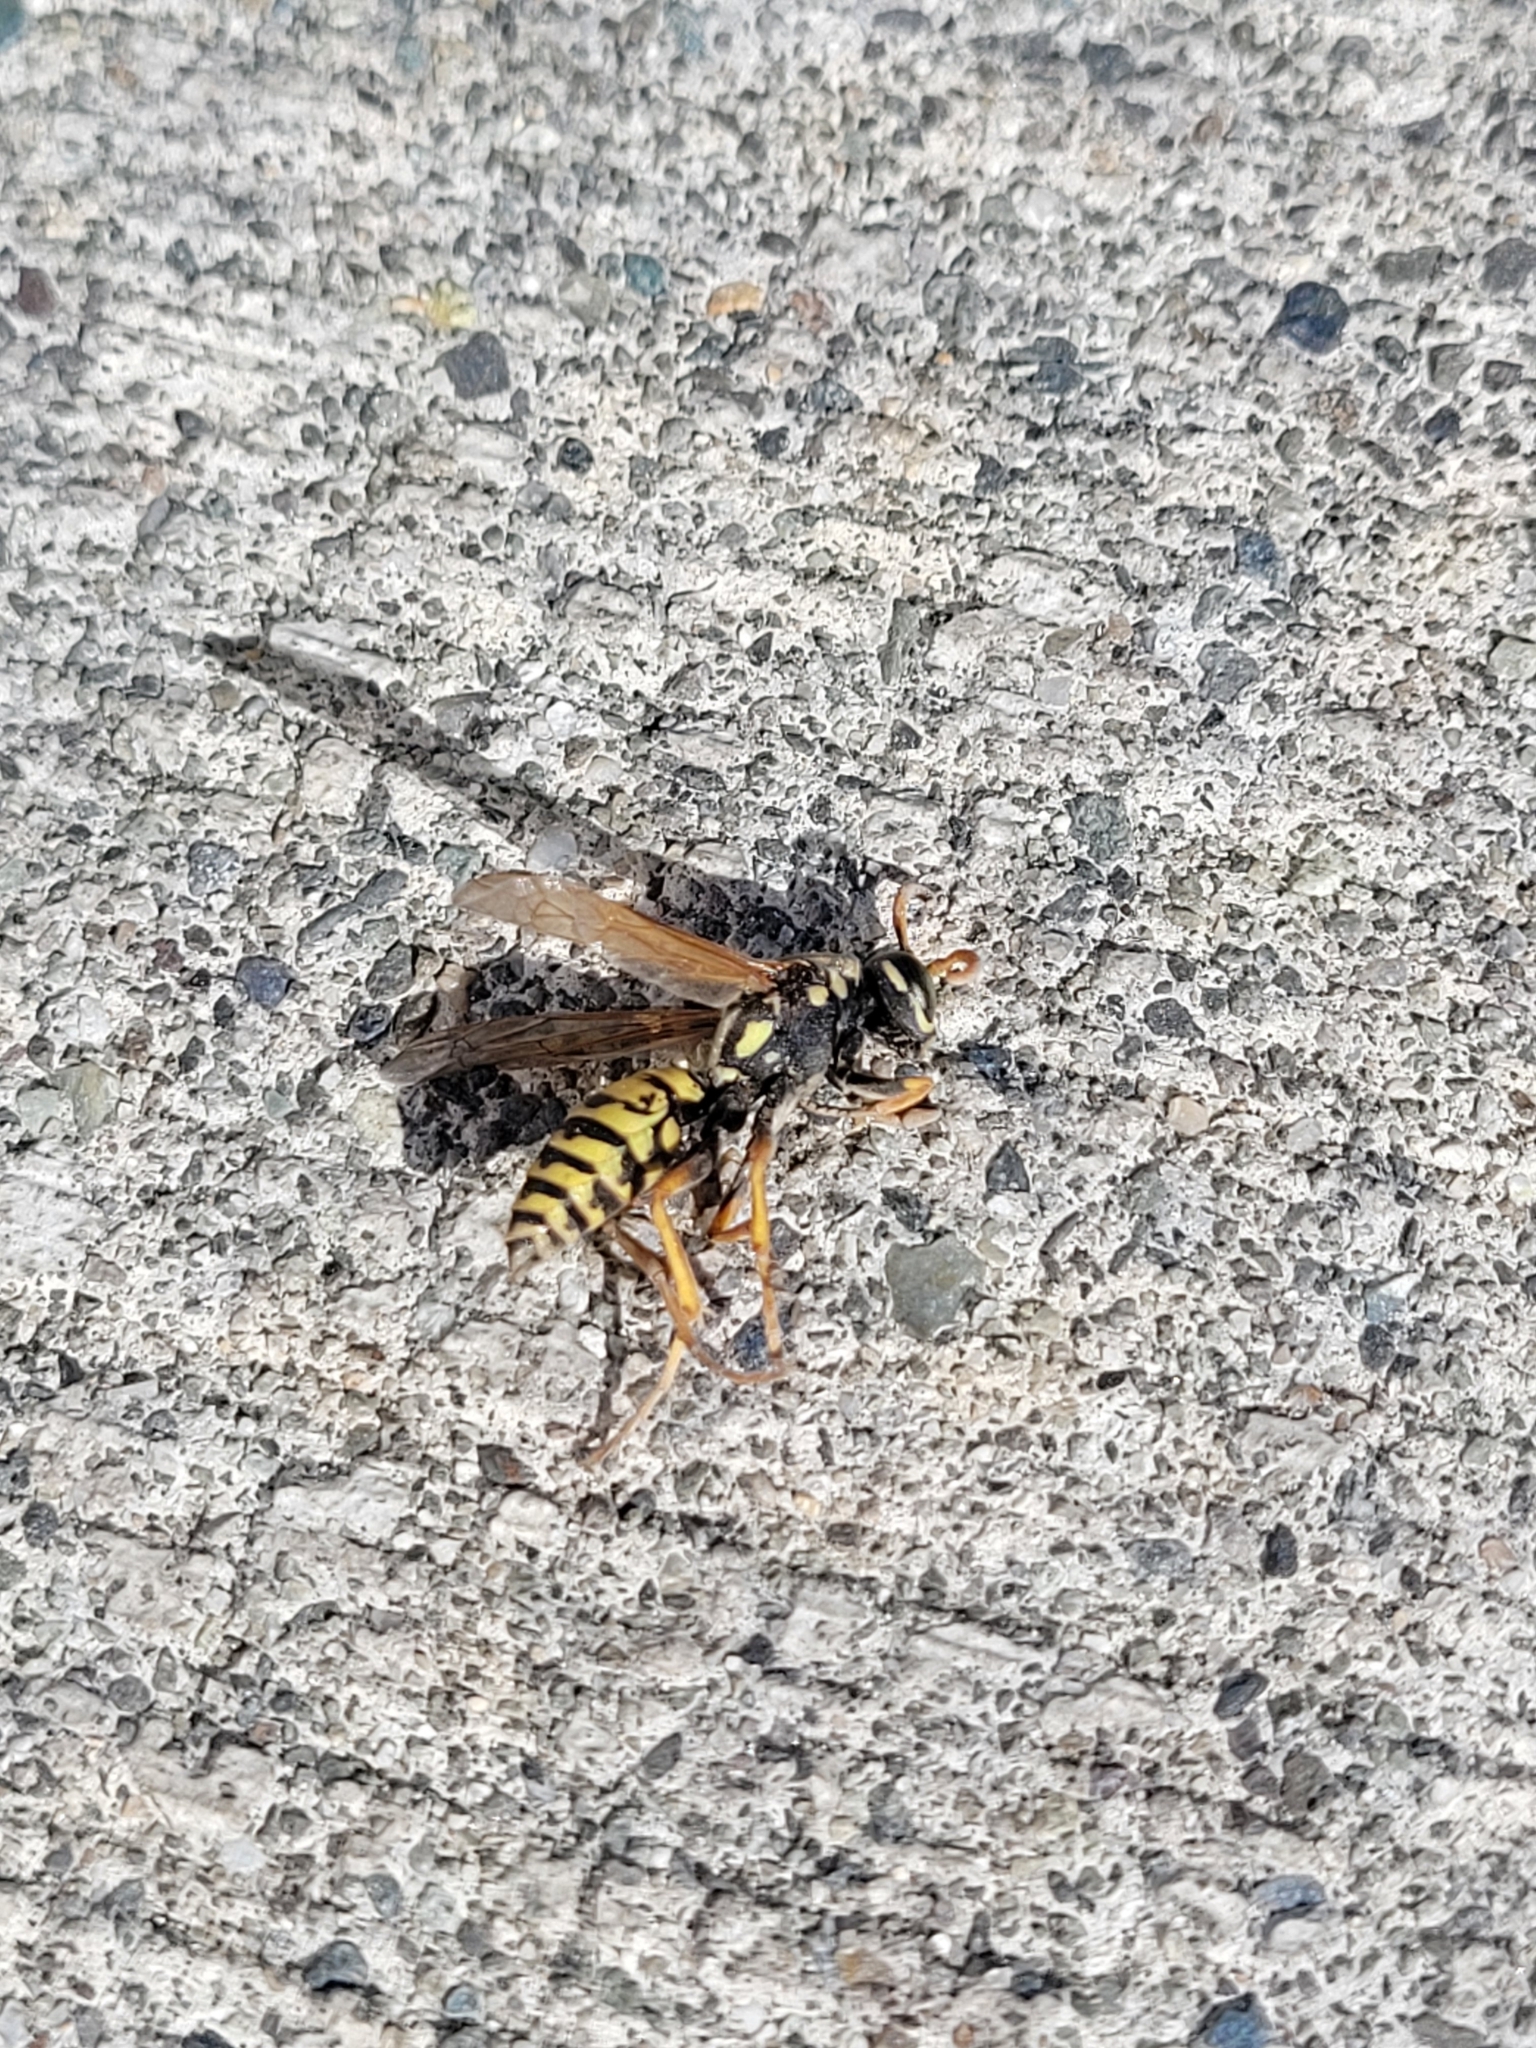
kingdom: Animalia
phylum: Arthropoda
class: Insecta
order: Hymenoptera
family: Eumenidae
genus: Polistes
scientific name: Polistes dominula
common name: Paper wasp
